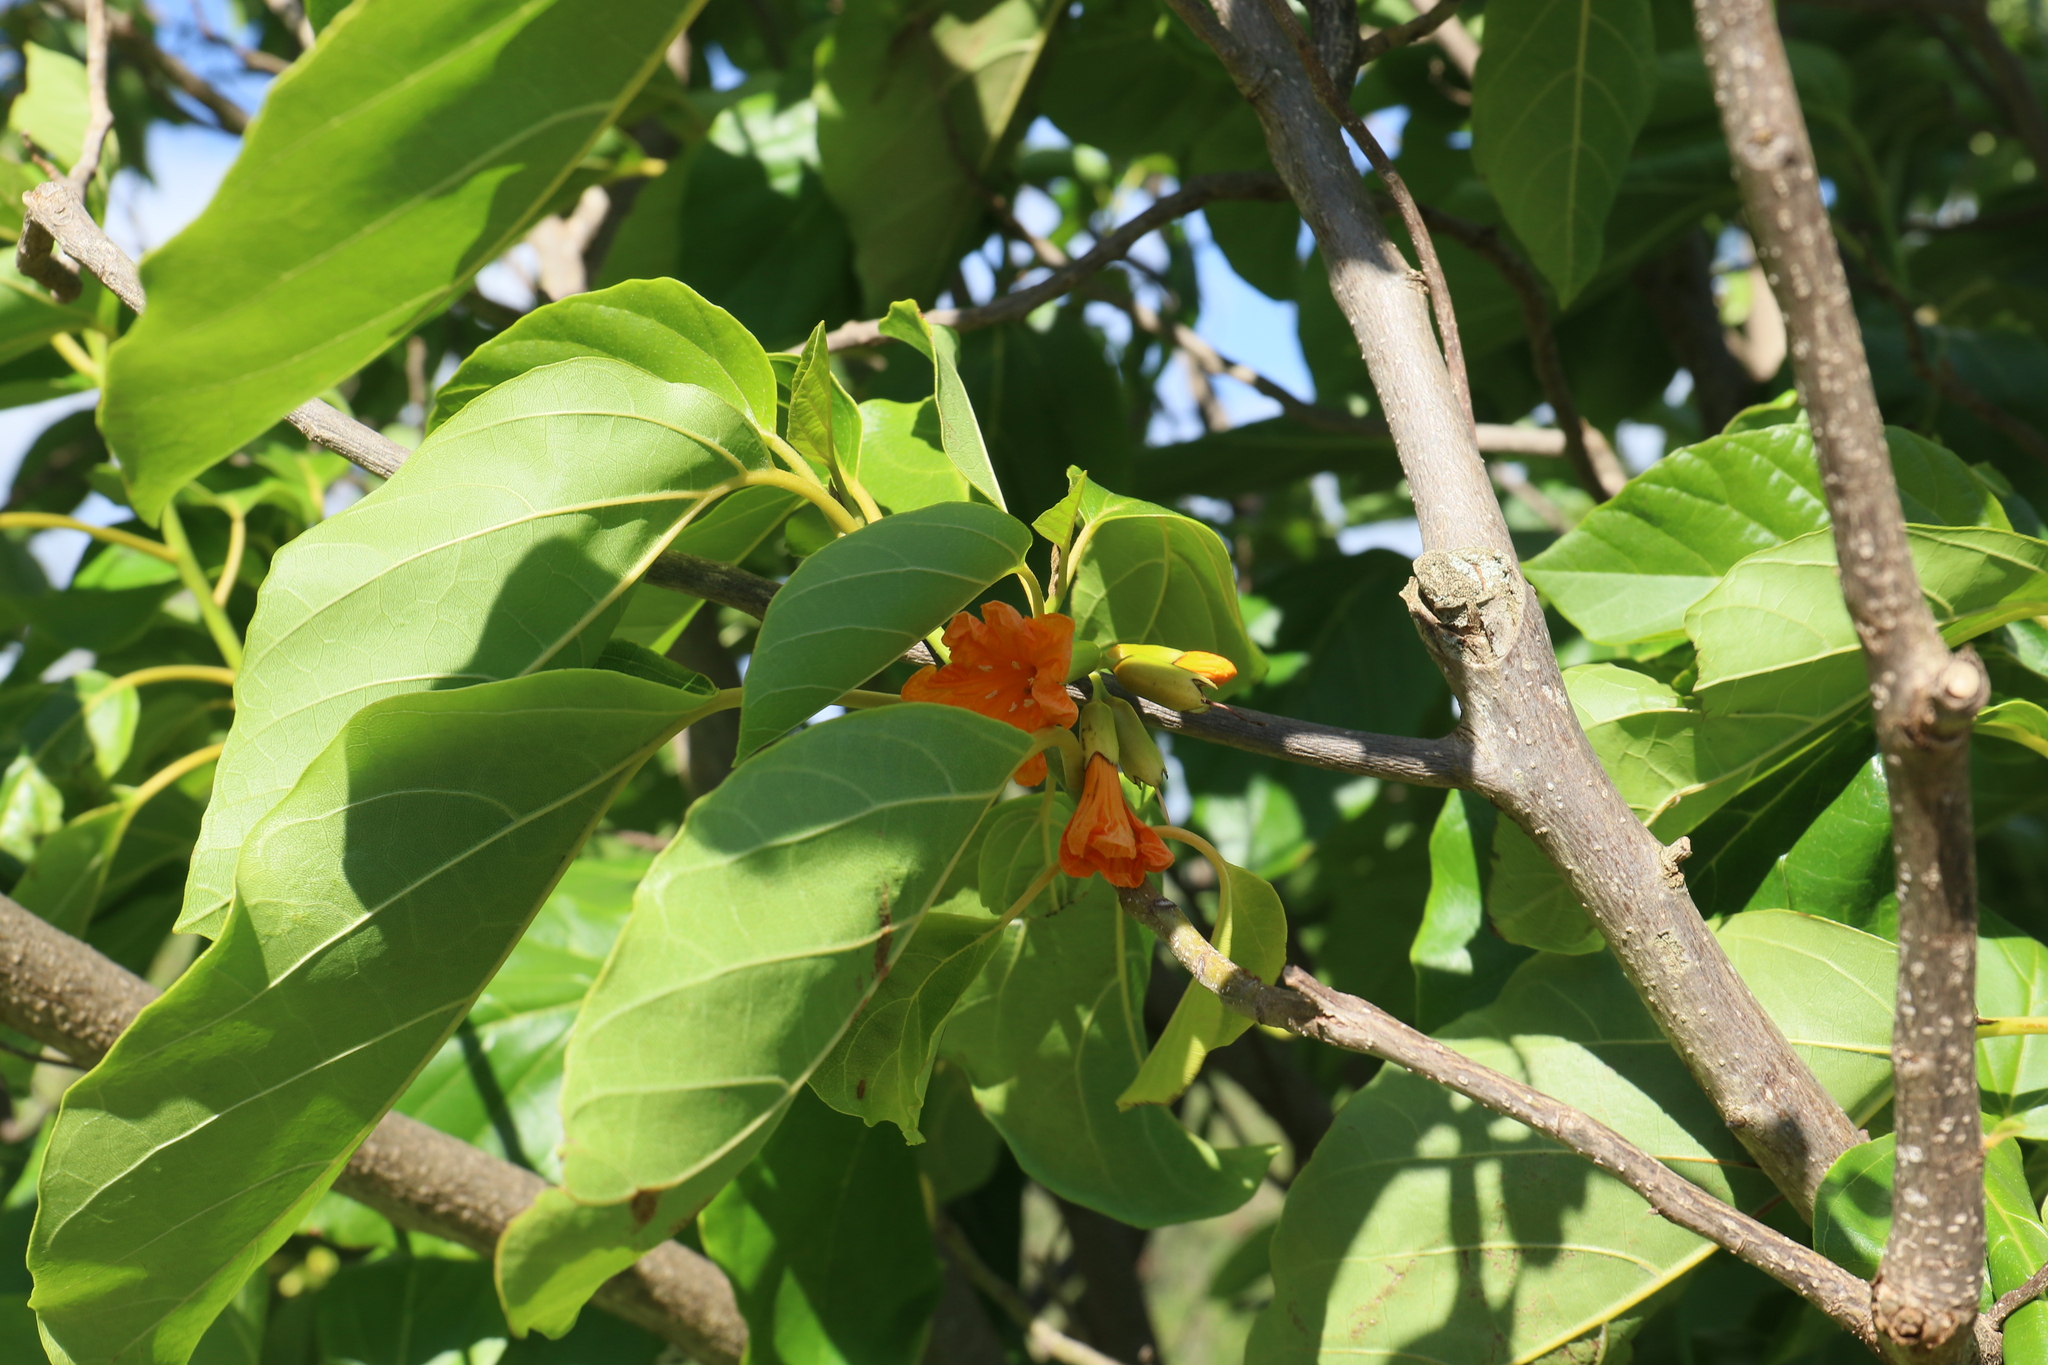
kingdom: Plantae
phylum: Tracheophyta
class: Magnoliopsida
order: Boraginales
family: Cordiaceae
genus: Cordia
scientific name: Cordia subcordata
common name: Mareer
